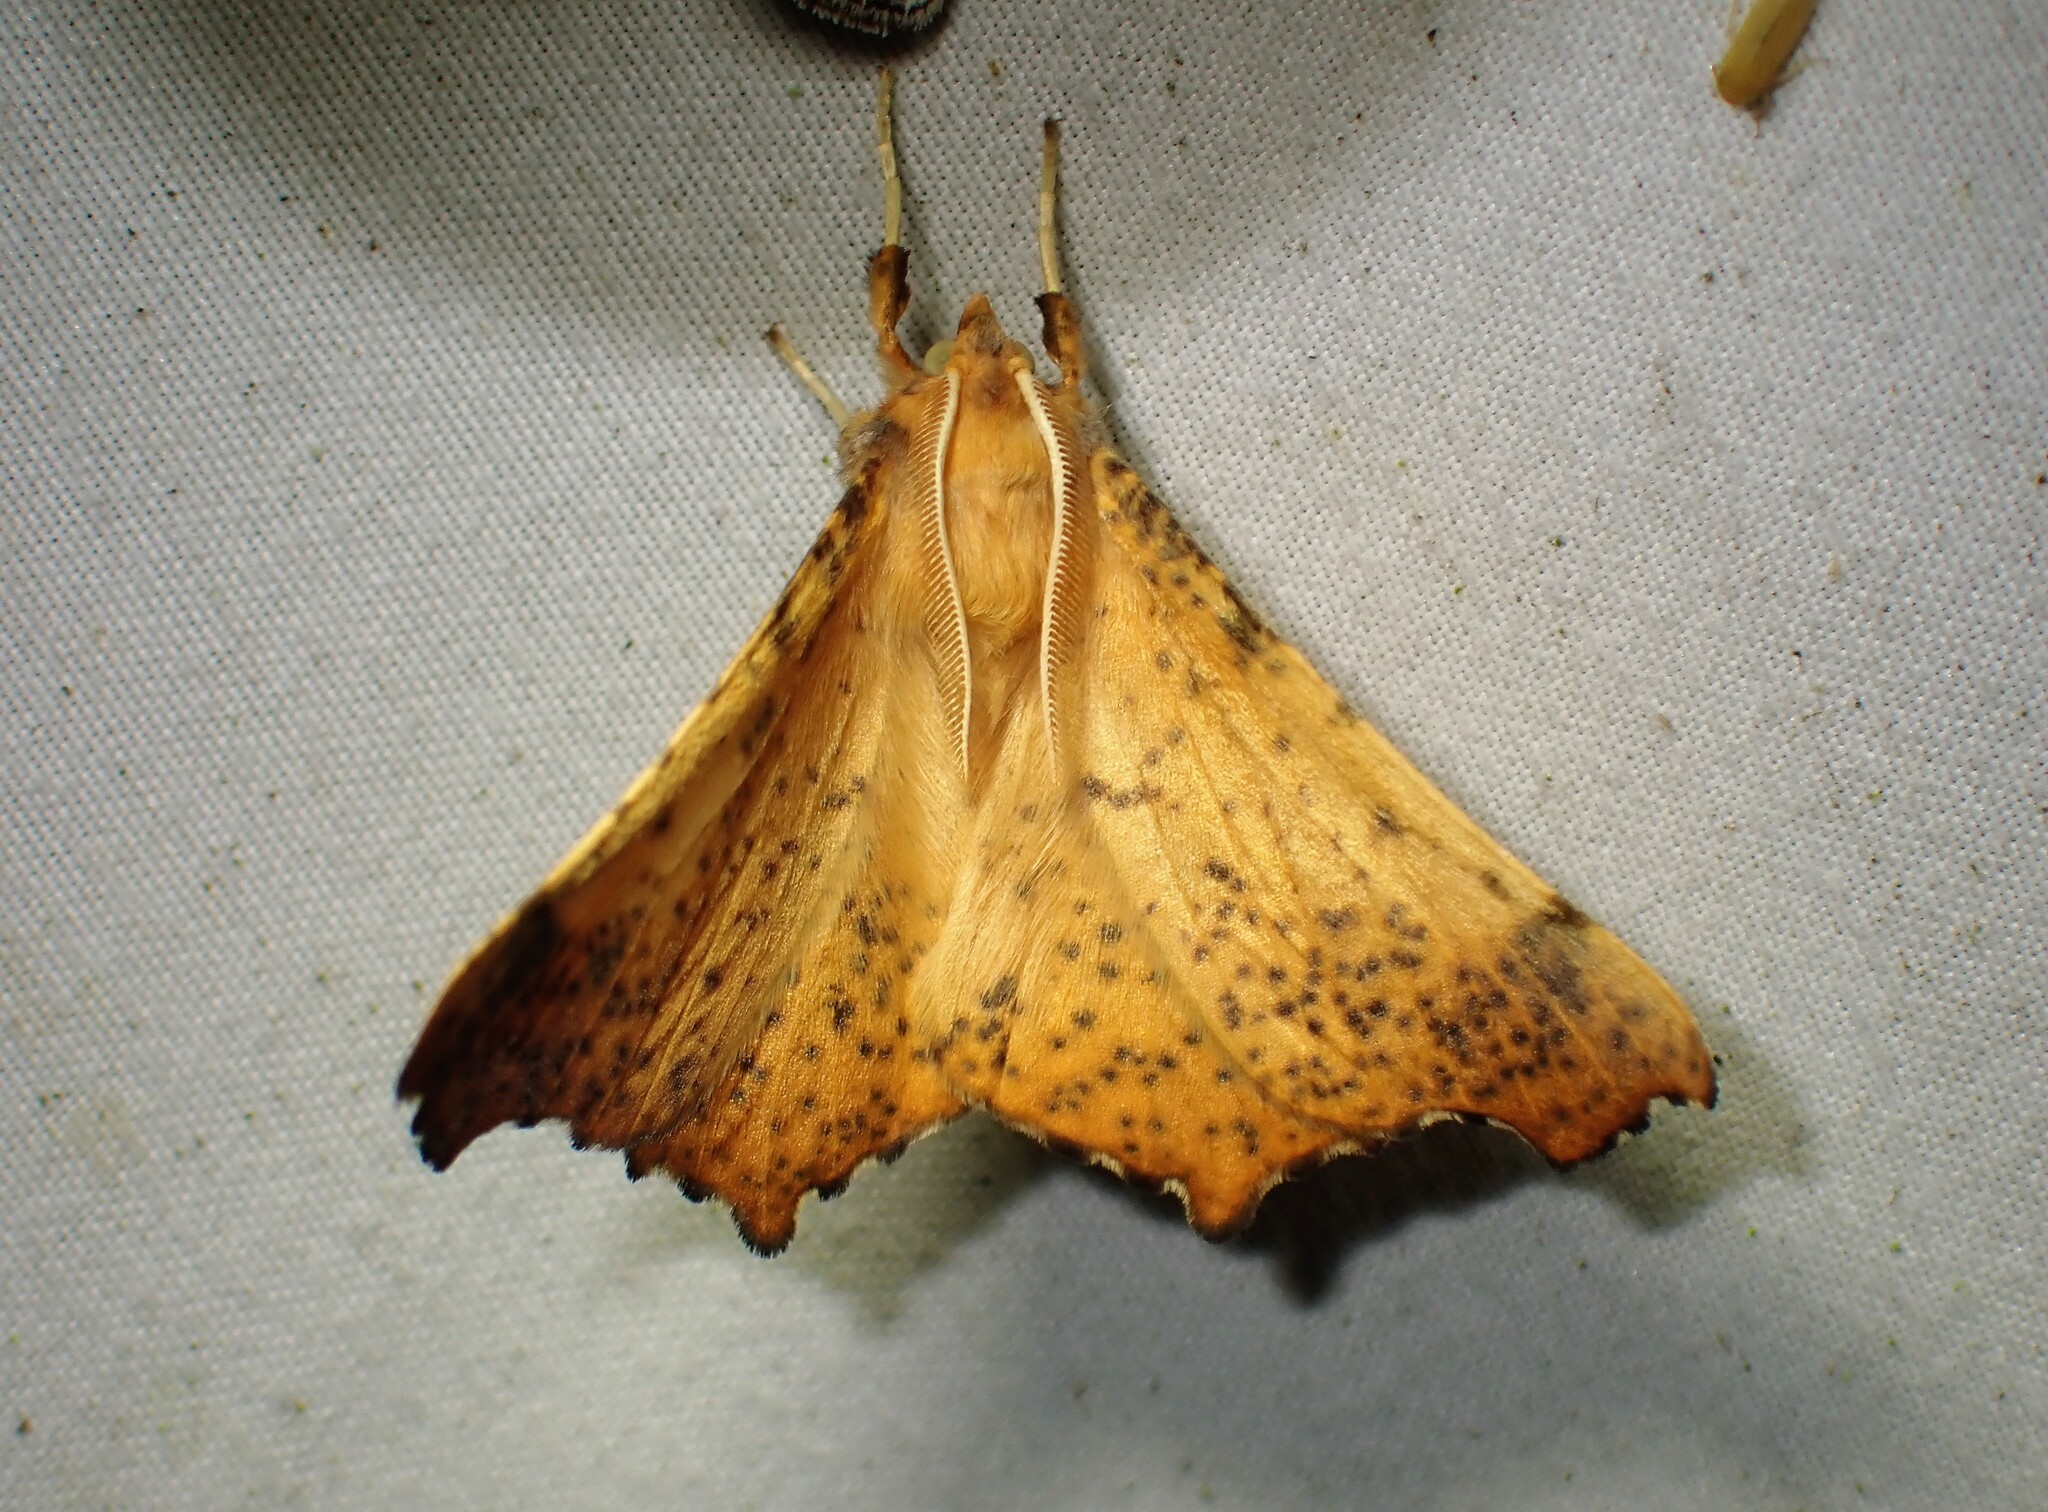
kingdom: Animalia
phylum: Arthropoda
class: Insecta
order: Lepidoptera
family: Geometridae
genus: Ennomos
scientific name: Ennomos magnaria
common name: Maple spanworm
